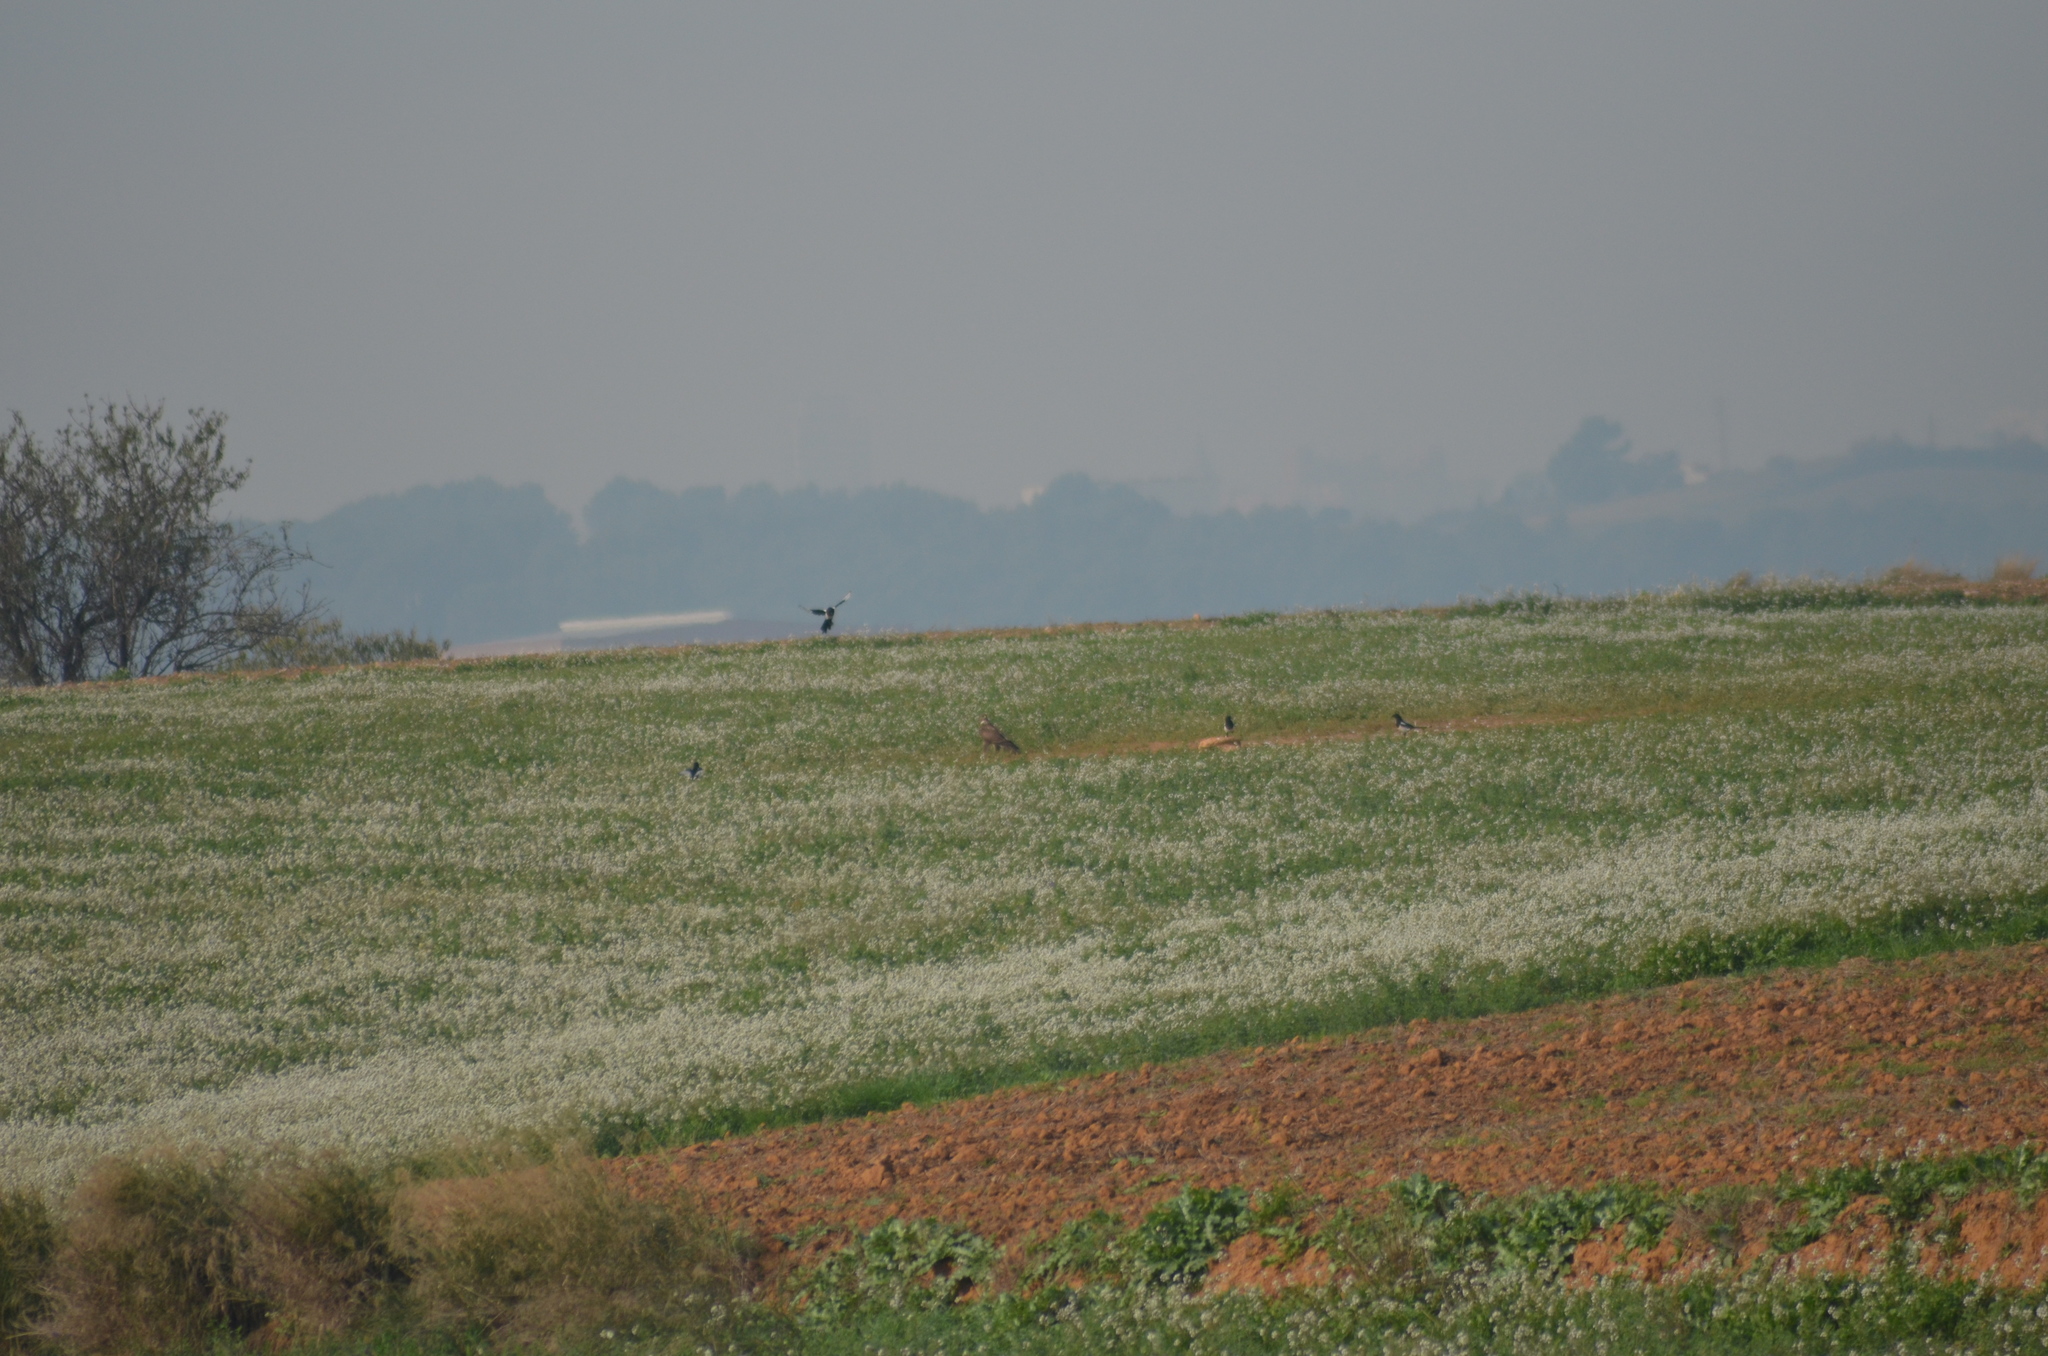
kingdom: Animalia
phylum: Chordata
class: Aves
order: Accipitriformes
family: Accipitridae
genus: Buteo
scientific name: Buteo buteo
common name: Common buzzard
